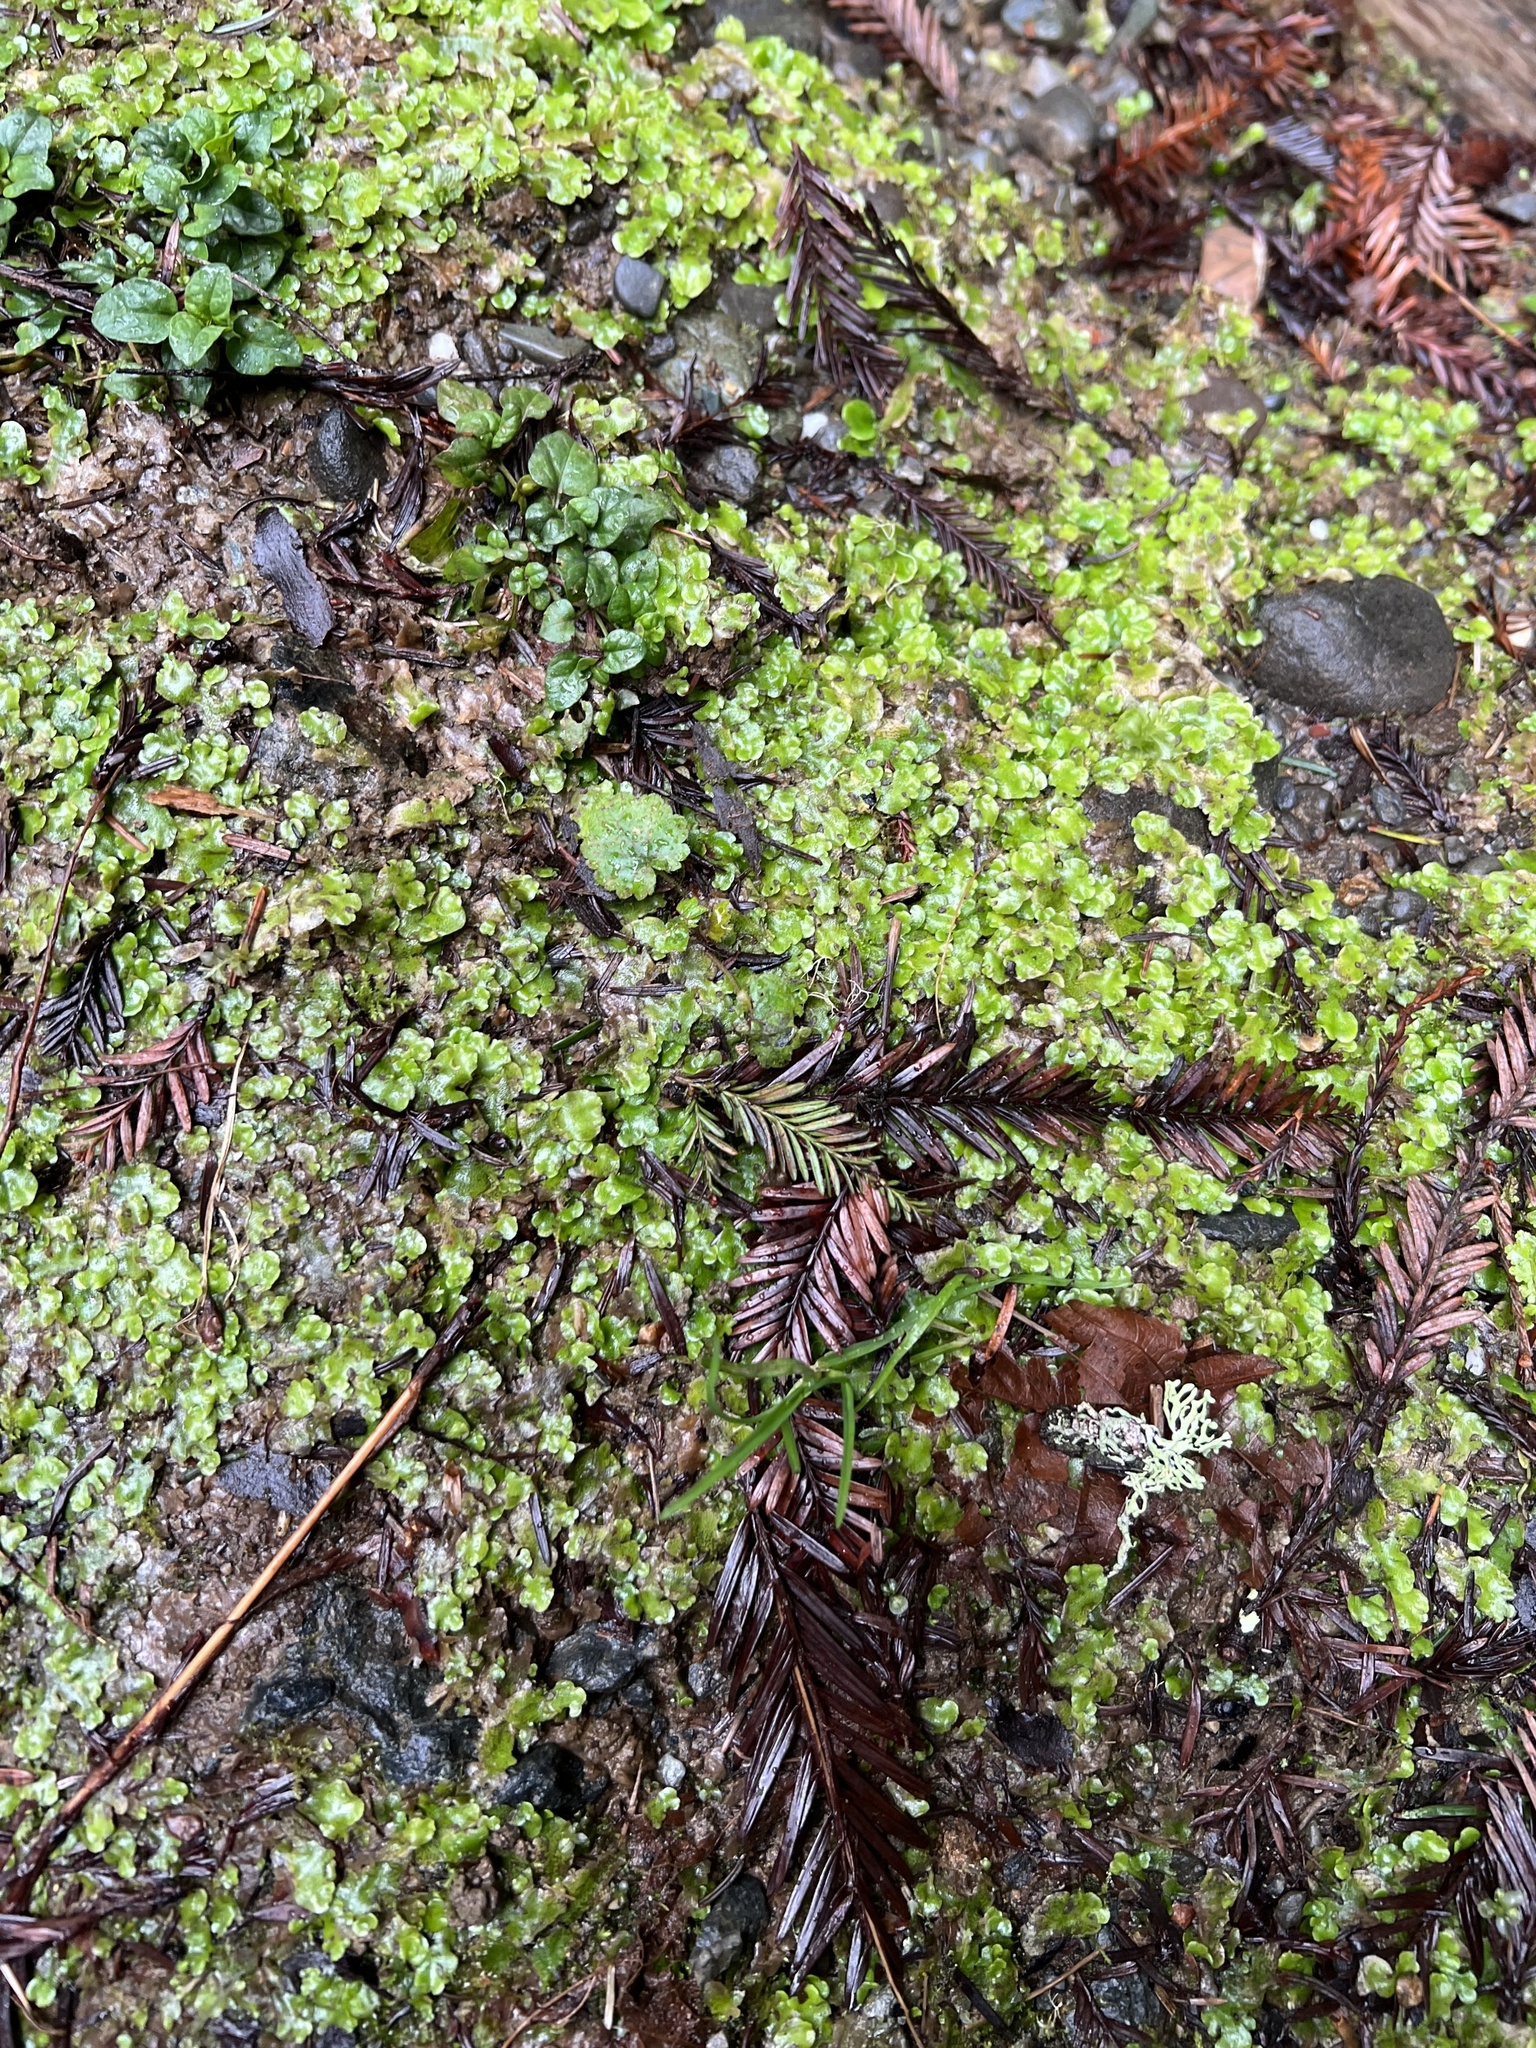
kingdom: Plantae
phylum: Marchantiophyta
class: Marchantiopsida
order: Lunulariales
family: Lunulariaceae
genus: Lunularia
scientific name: Lunularia cruciata
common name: Crescent-cup liverwort
